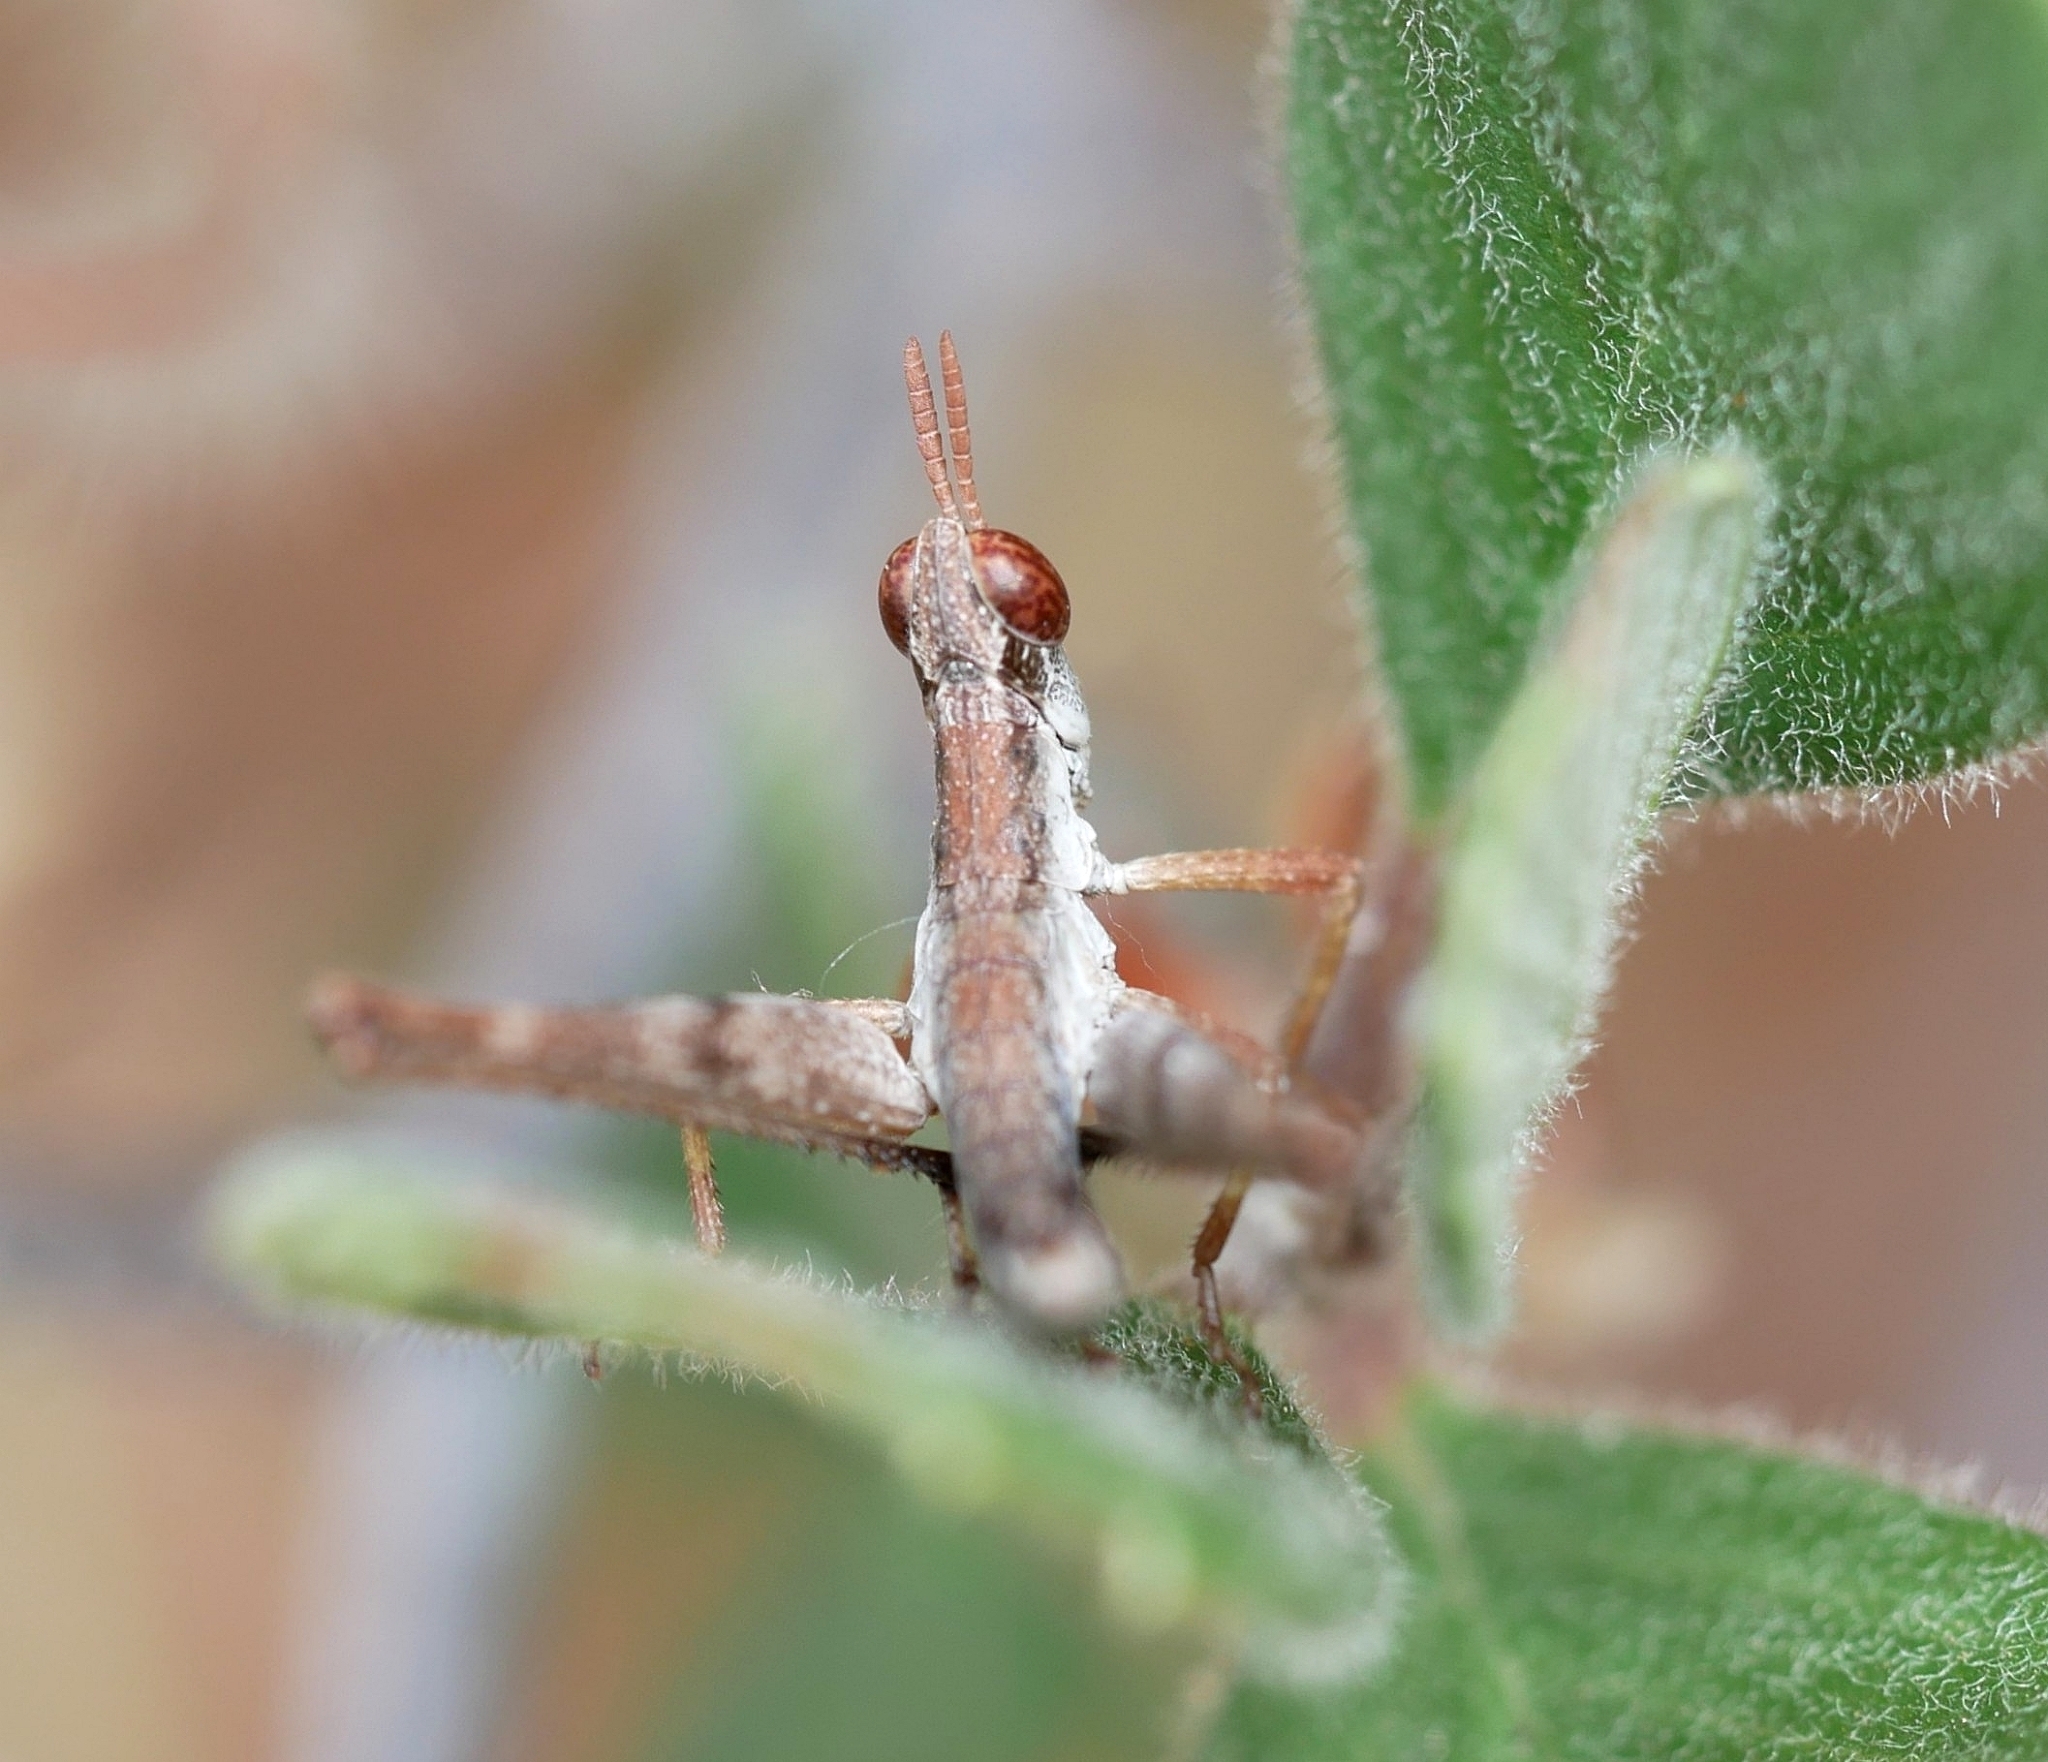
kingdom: Animalia
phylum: Arthropoda
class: Insecta
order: Orthoptera
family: Eumastacidae
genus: Morsea
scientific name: Morsea californica
